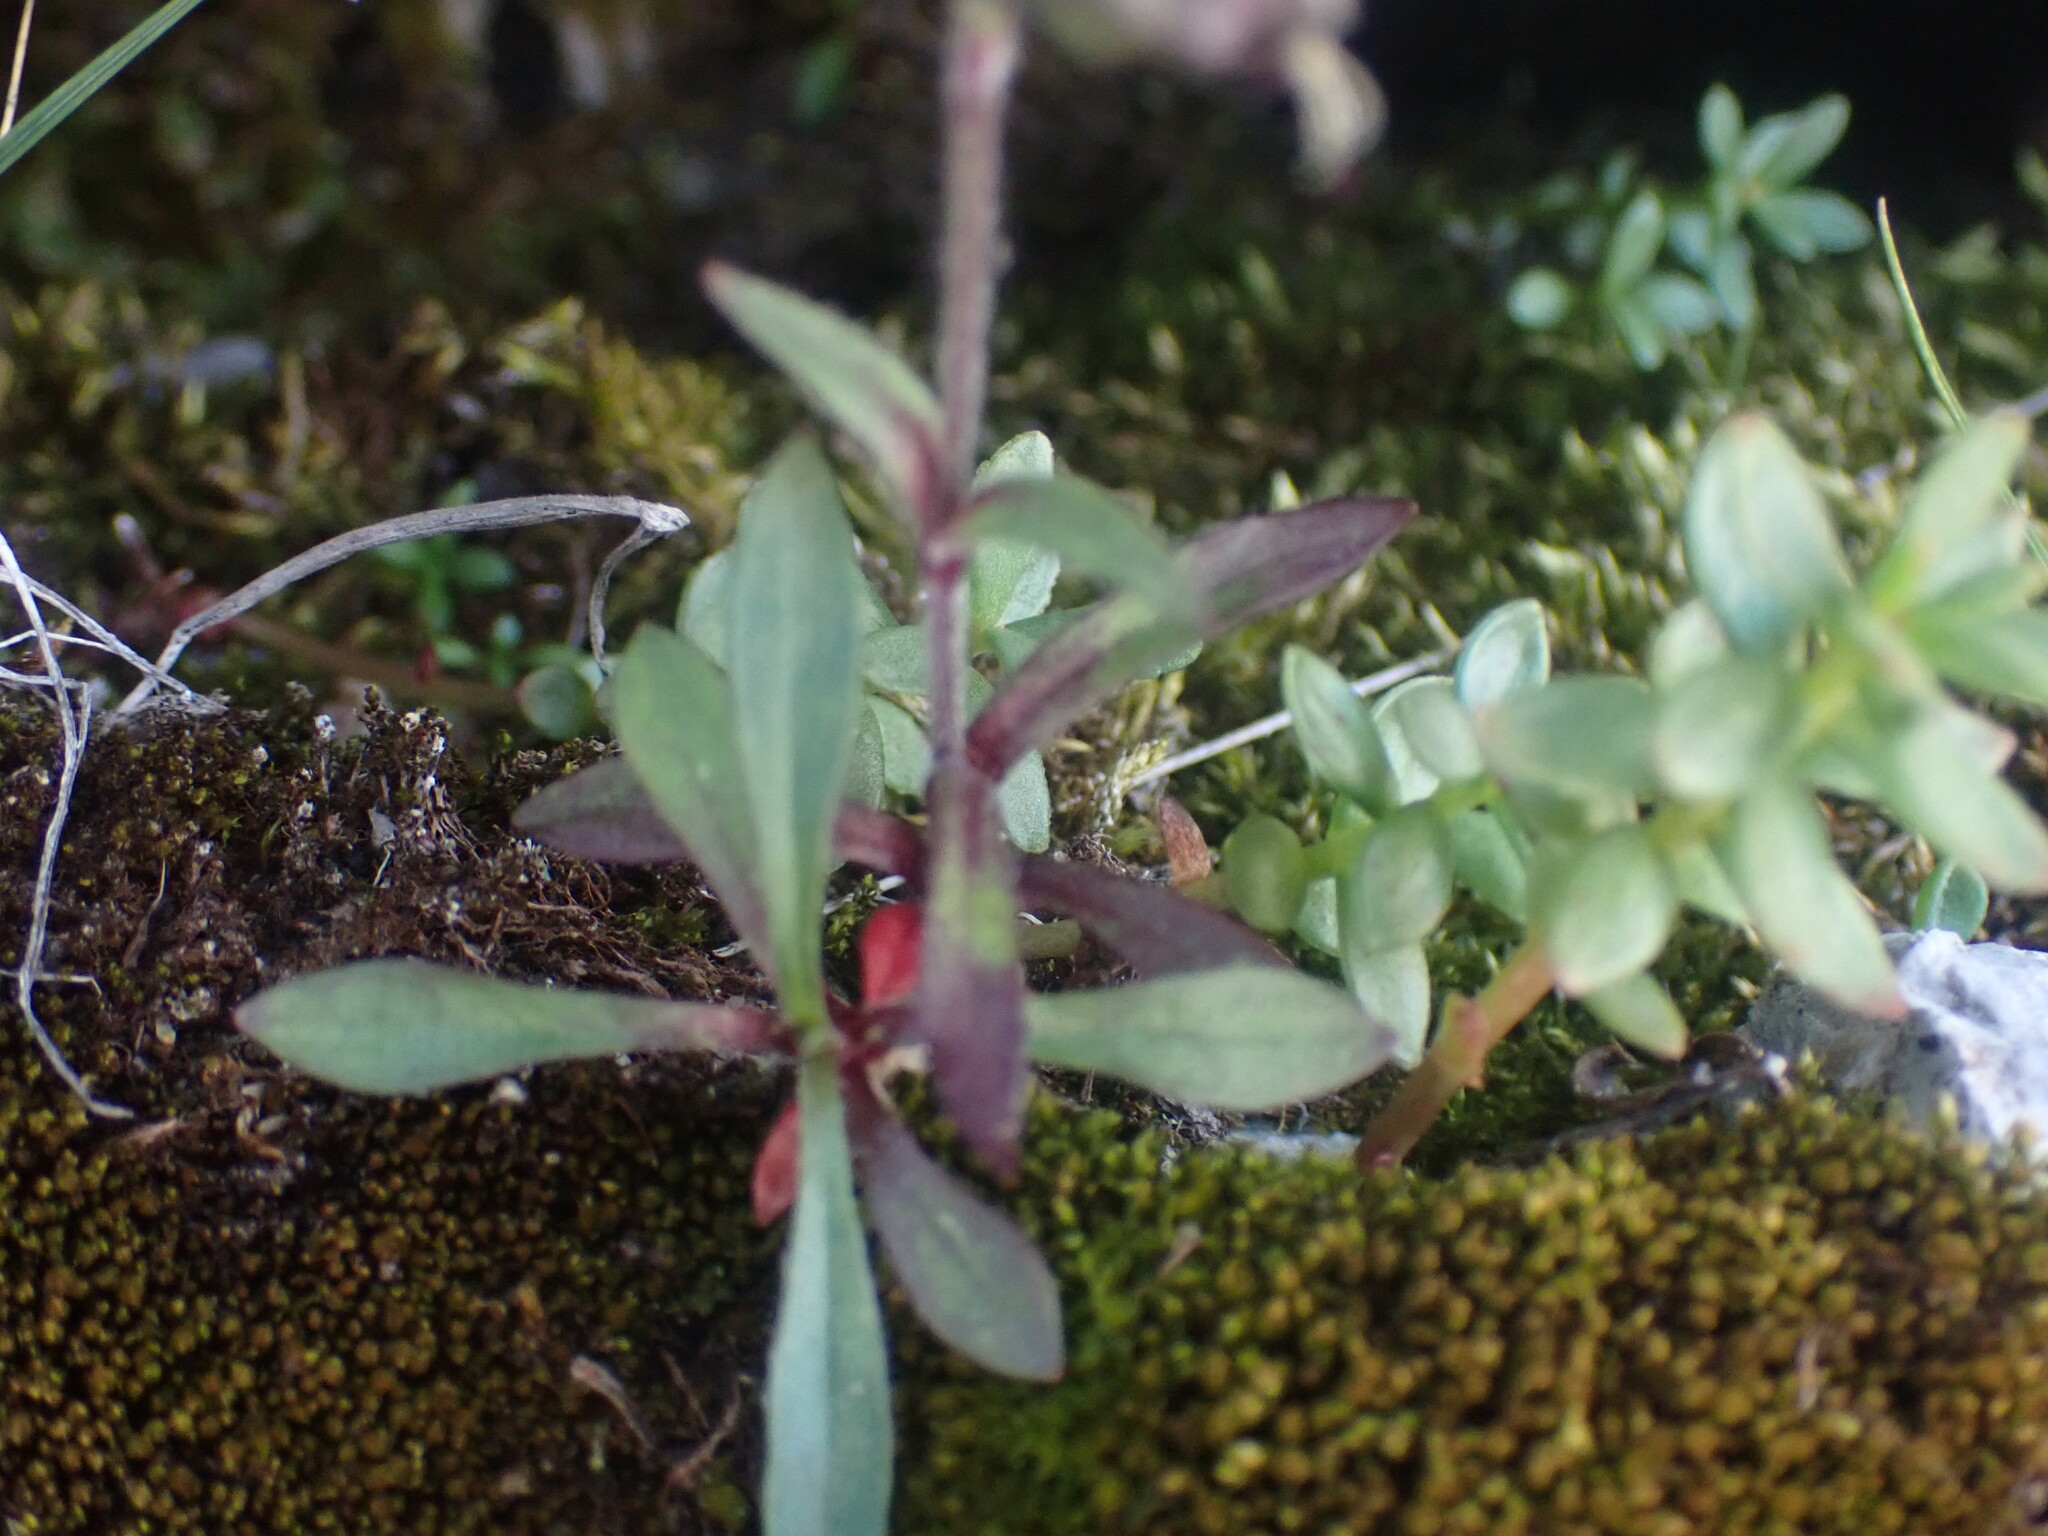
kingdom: Plantae
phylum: Tracheophyta
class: Magnoliopsida
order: Caryophyllales
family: Caryophyllaceae
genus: Silene
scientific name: Silene uralensis
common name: Nodding campion
